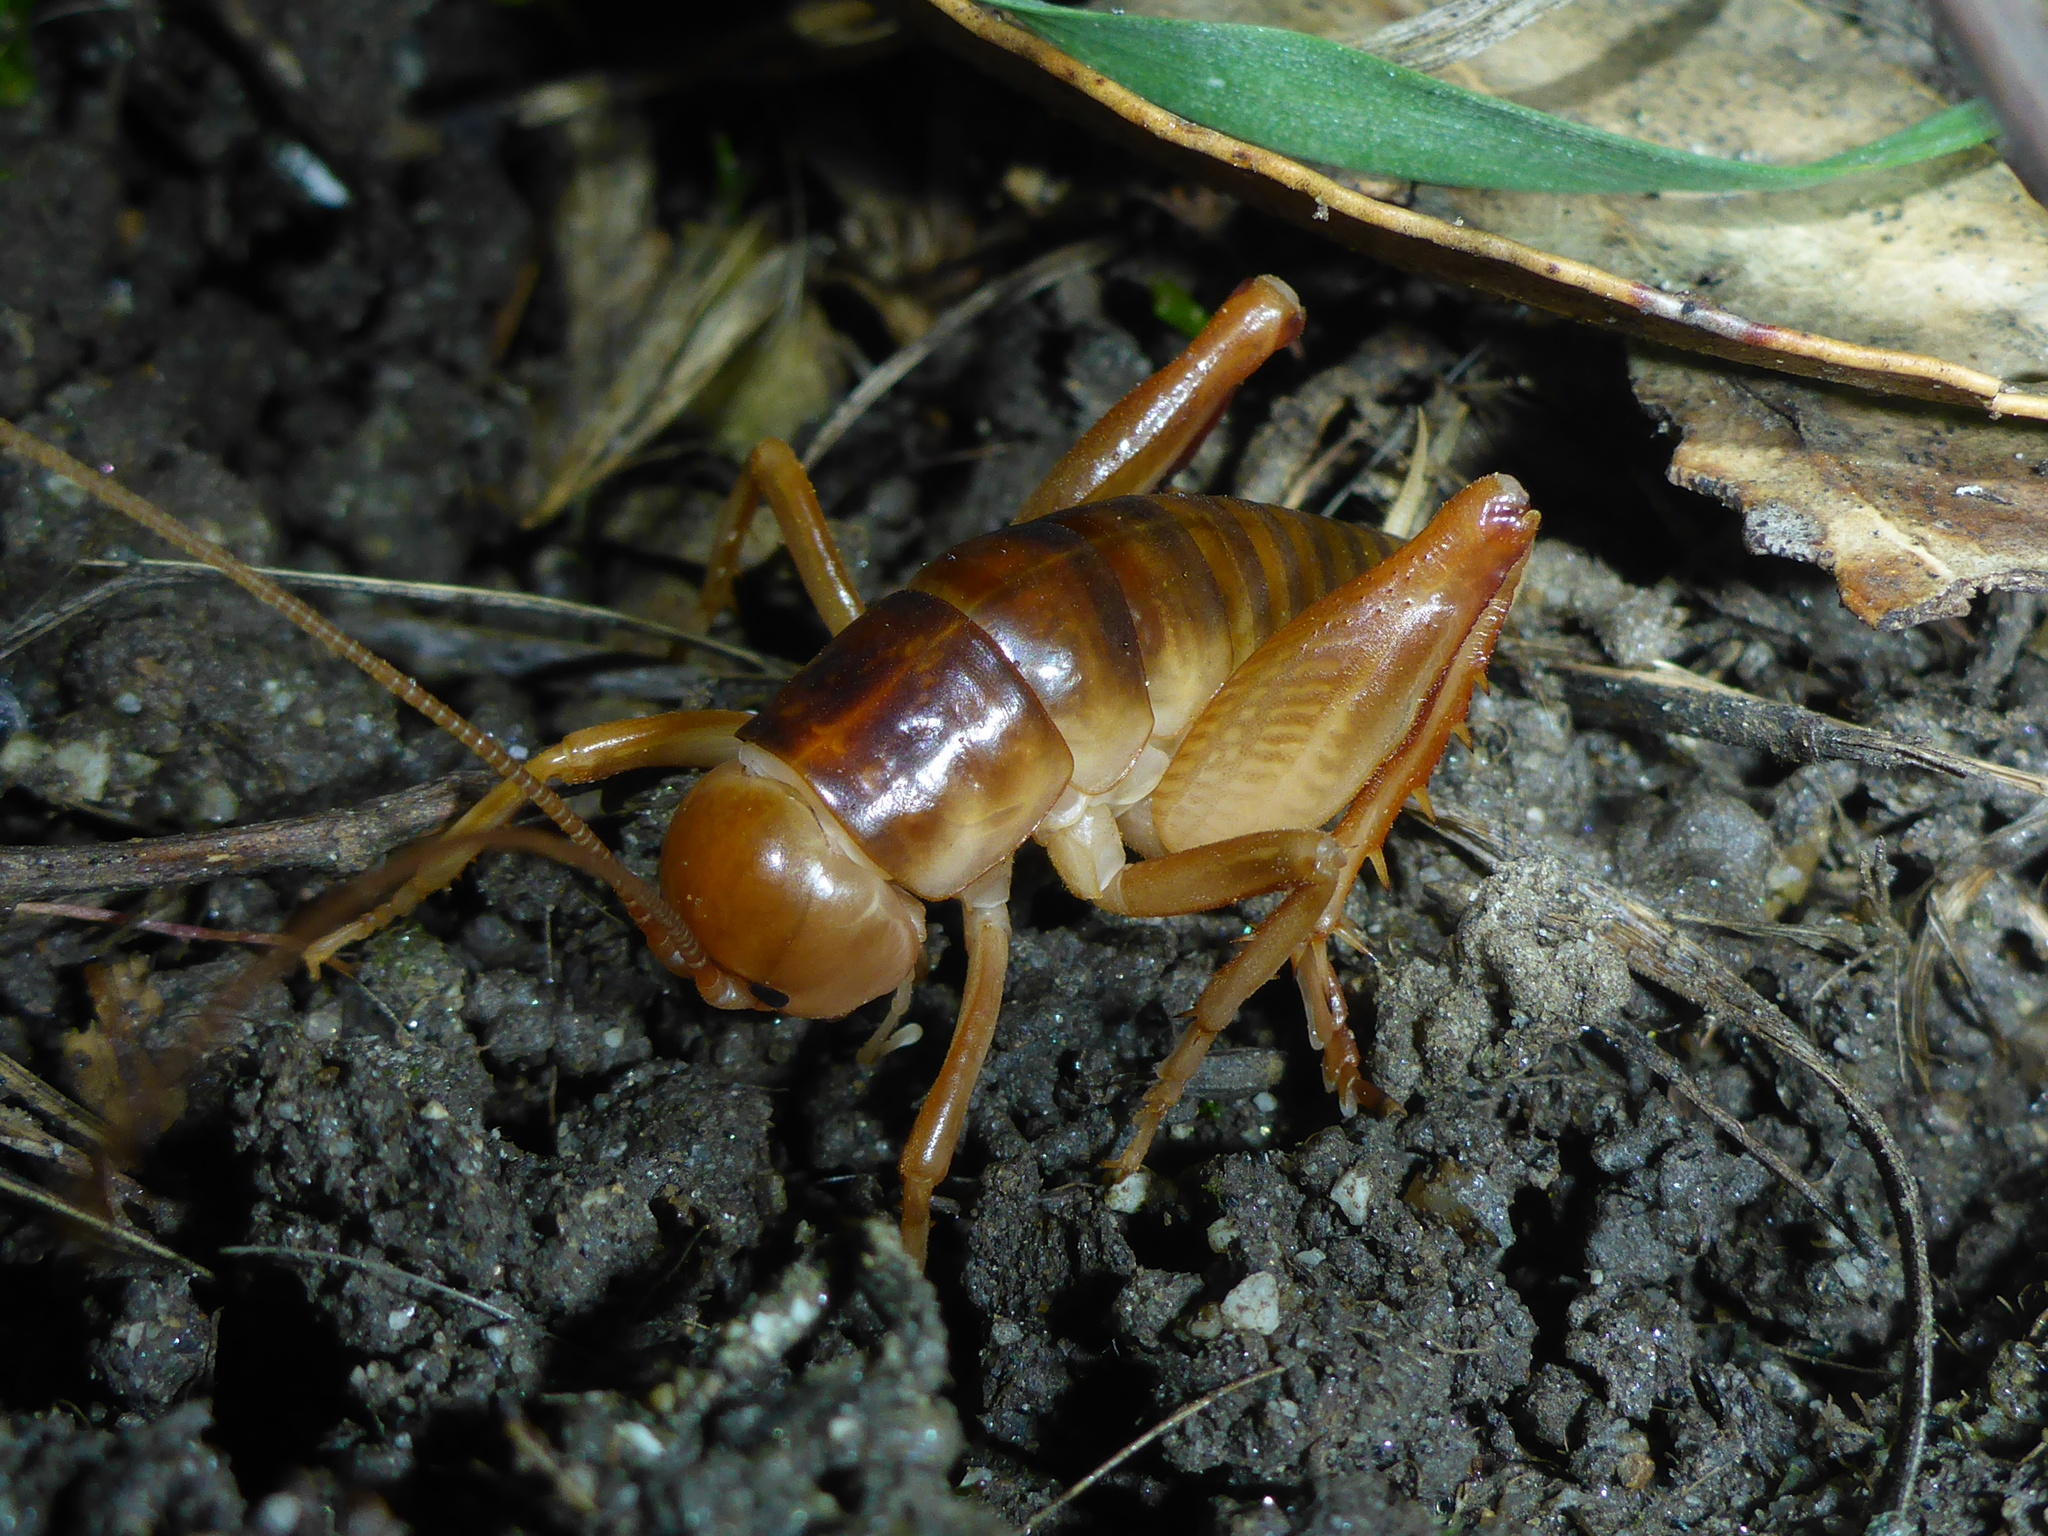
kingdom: Animalia
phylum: Arthropoda
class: Insecta
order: Orthoptera
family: Rhaphidophoridae
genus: Ceuthophilus
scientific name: Ceuthophilus californianus
